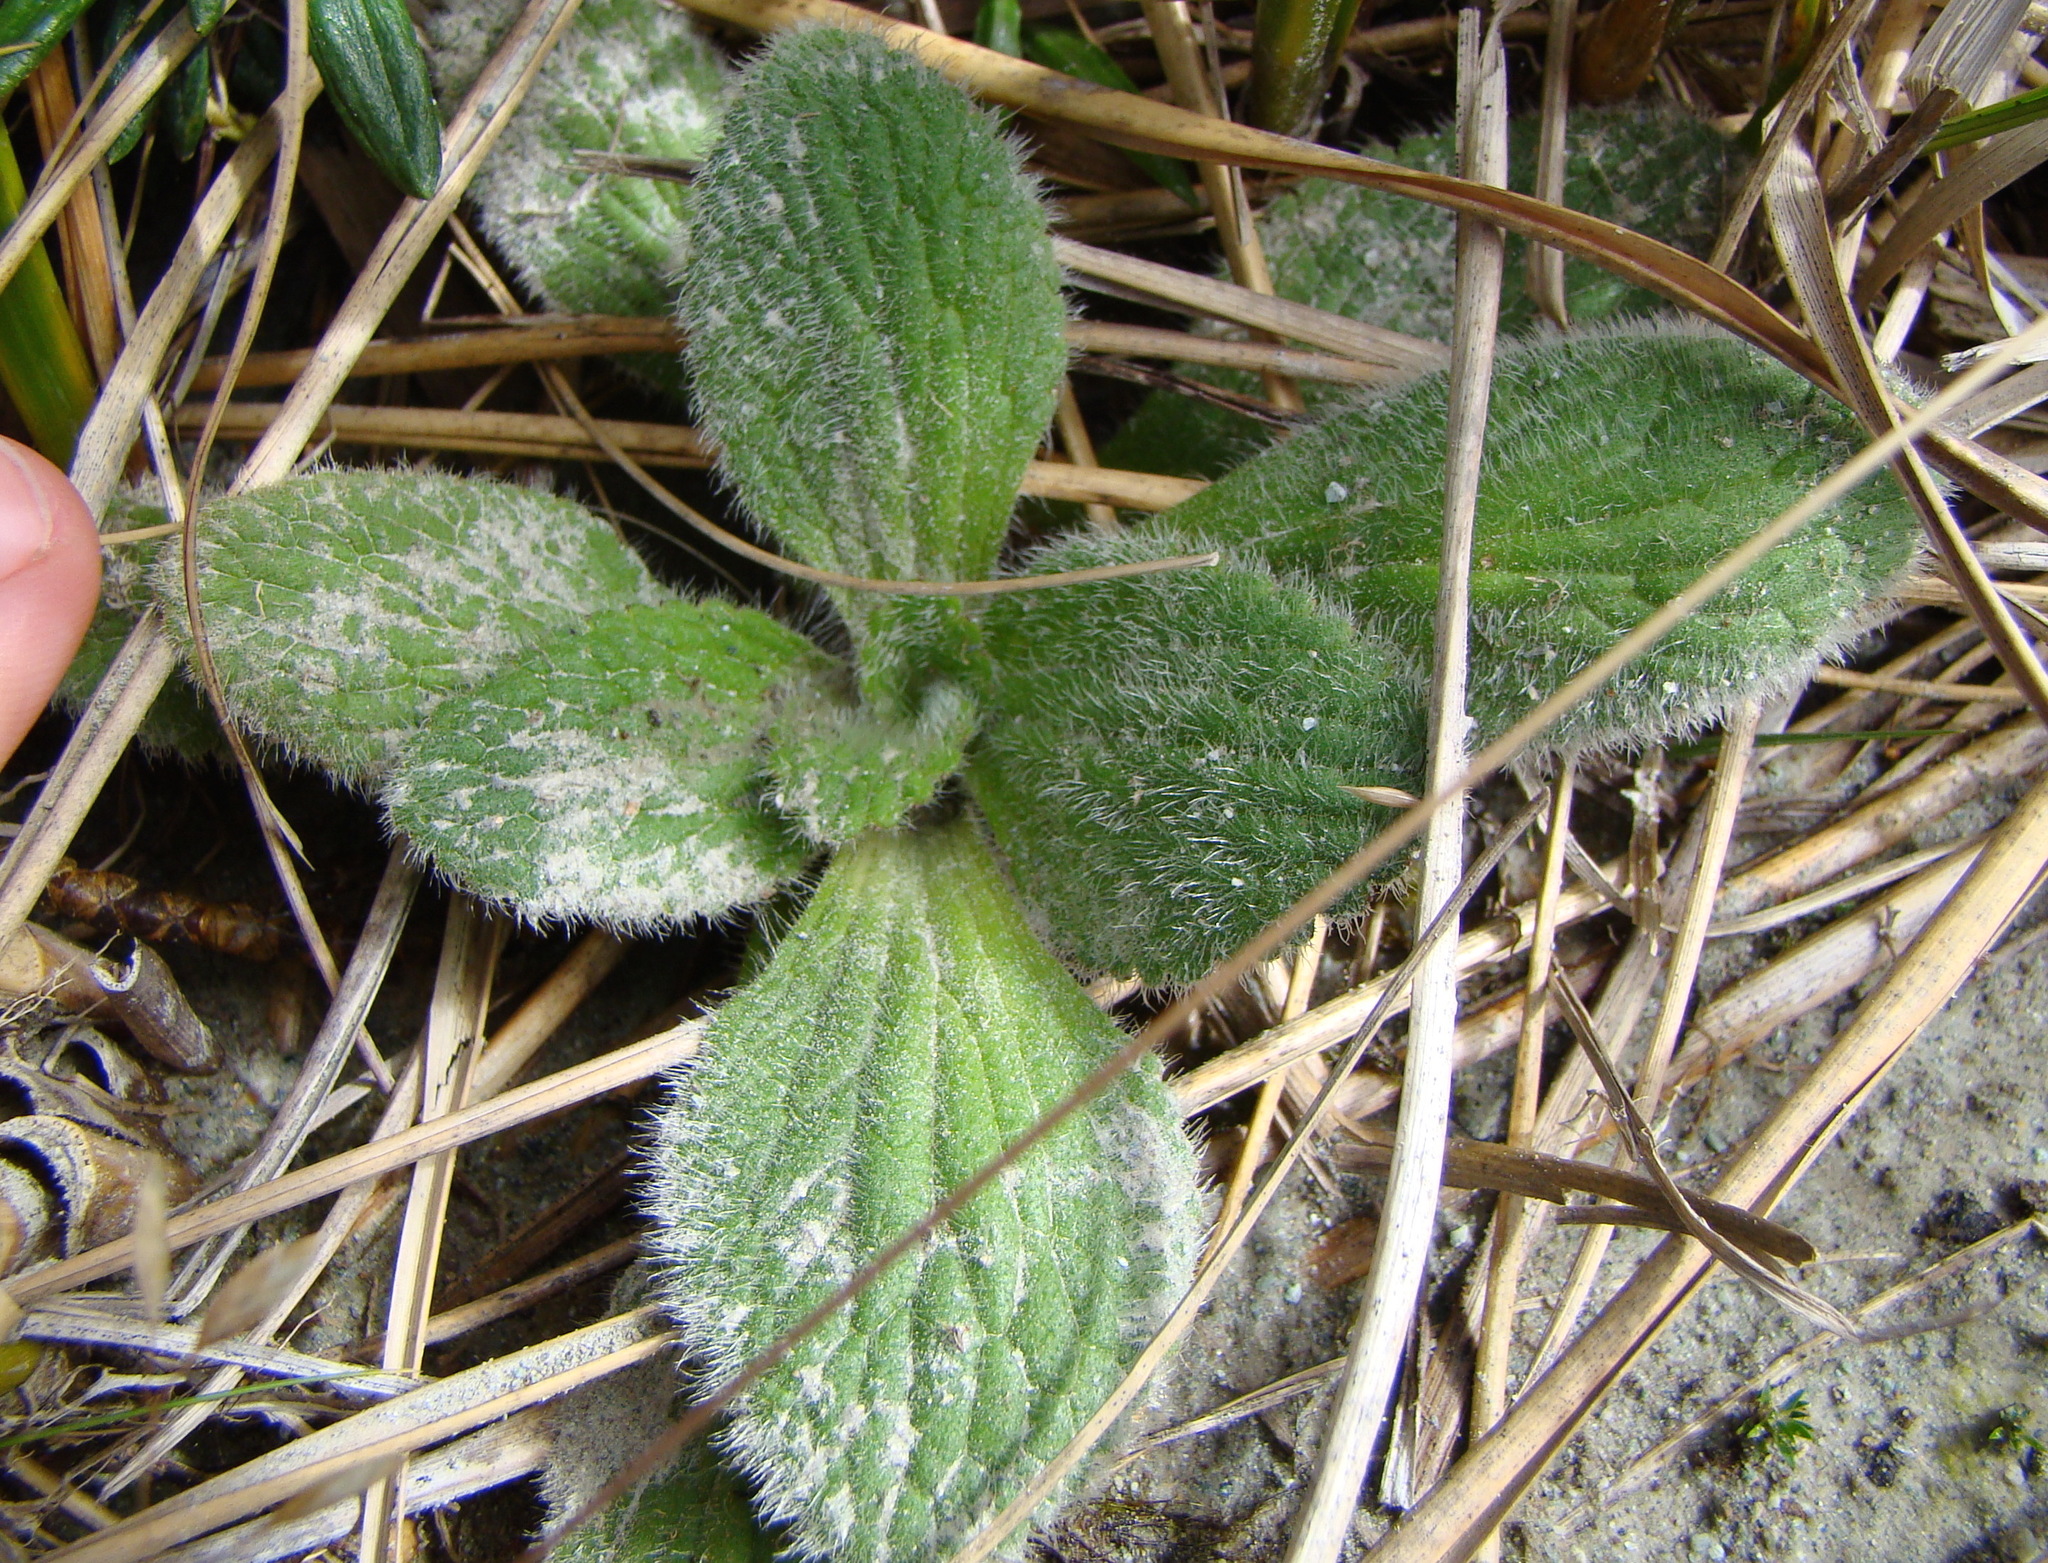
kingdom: Plantae
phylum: Tracheophyta
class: Magnoliopsida
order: Lamiales
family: Plantaginaceae
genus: Ourisia
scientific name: Ourisia sessilifolia
